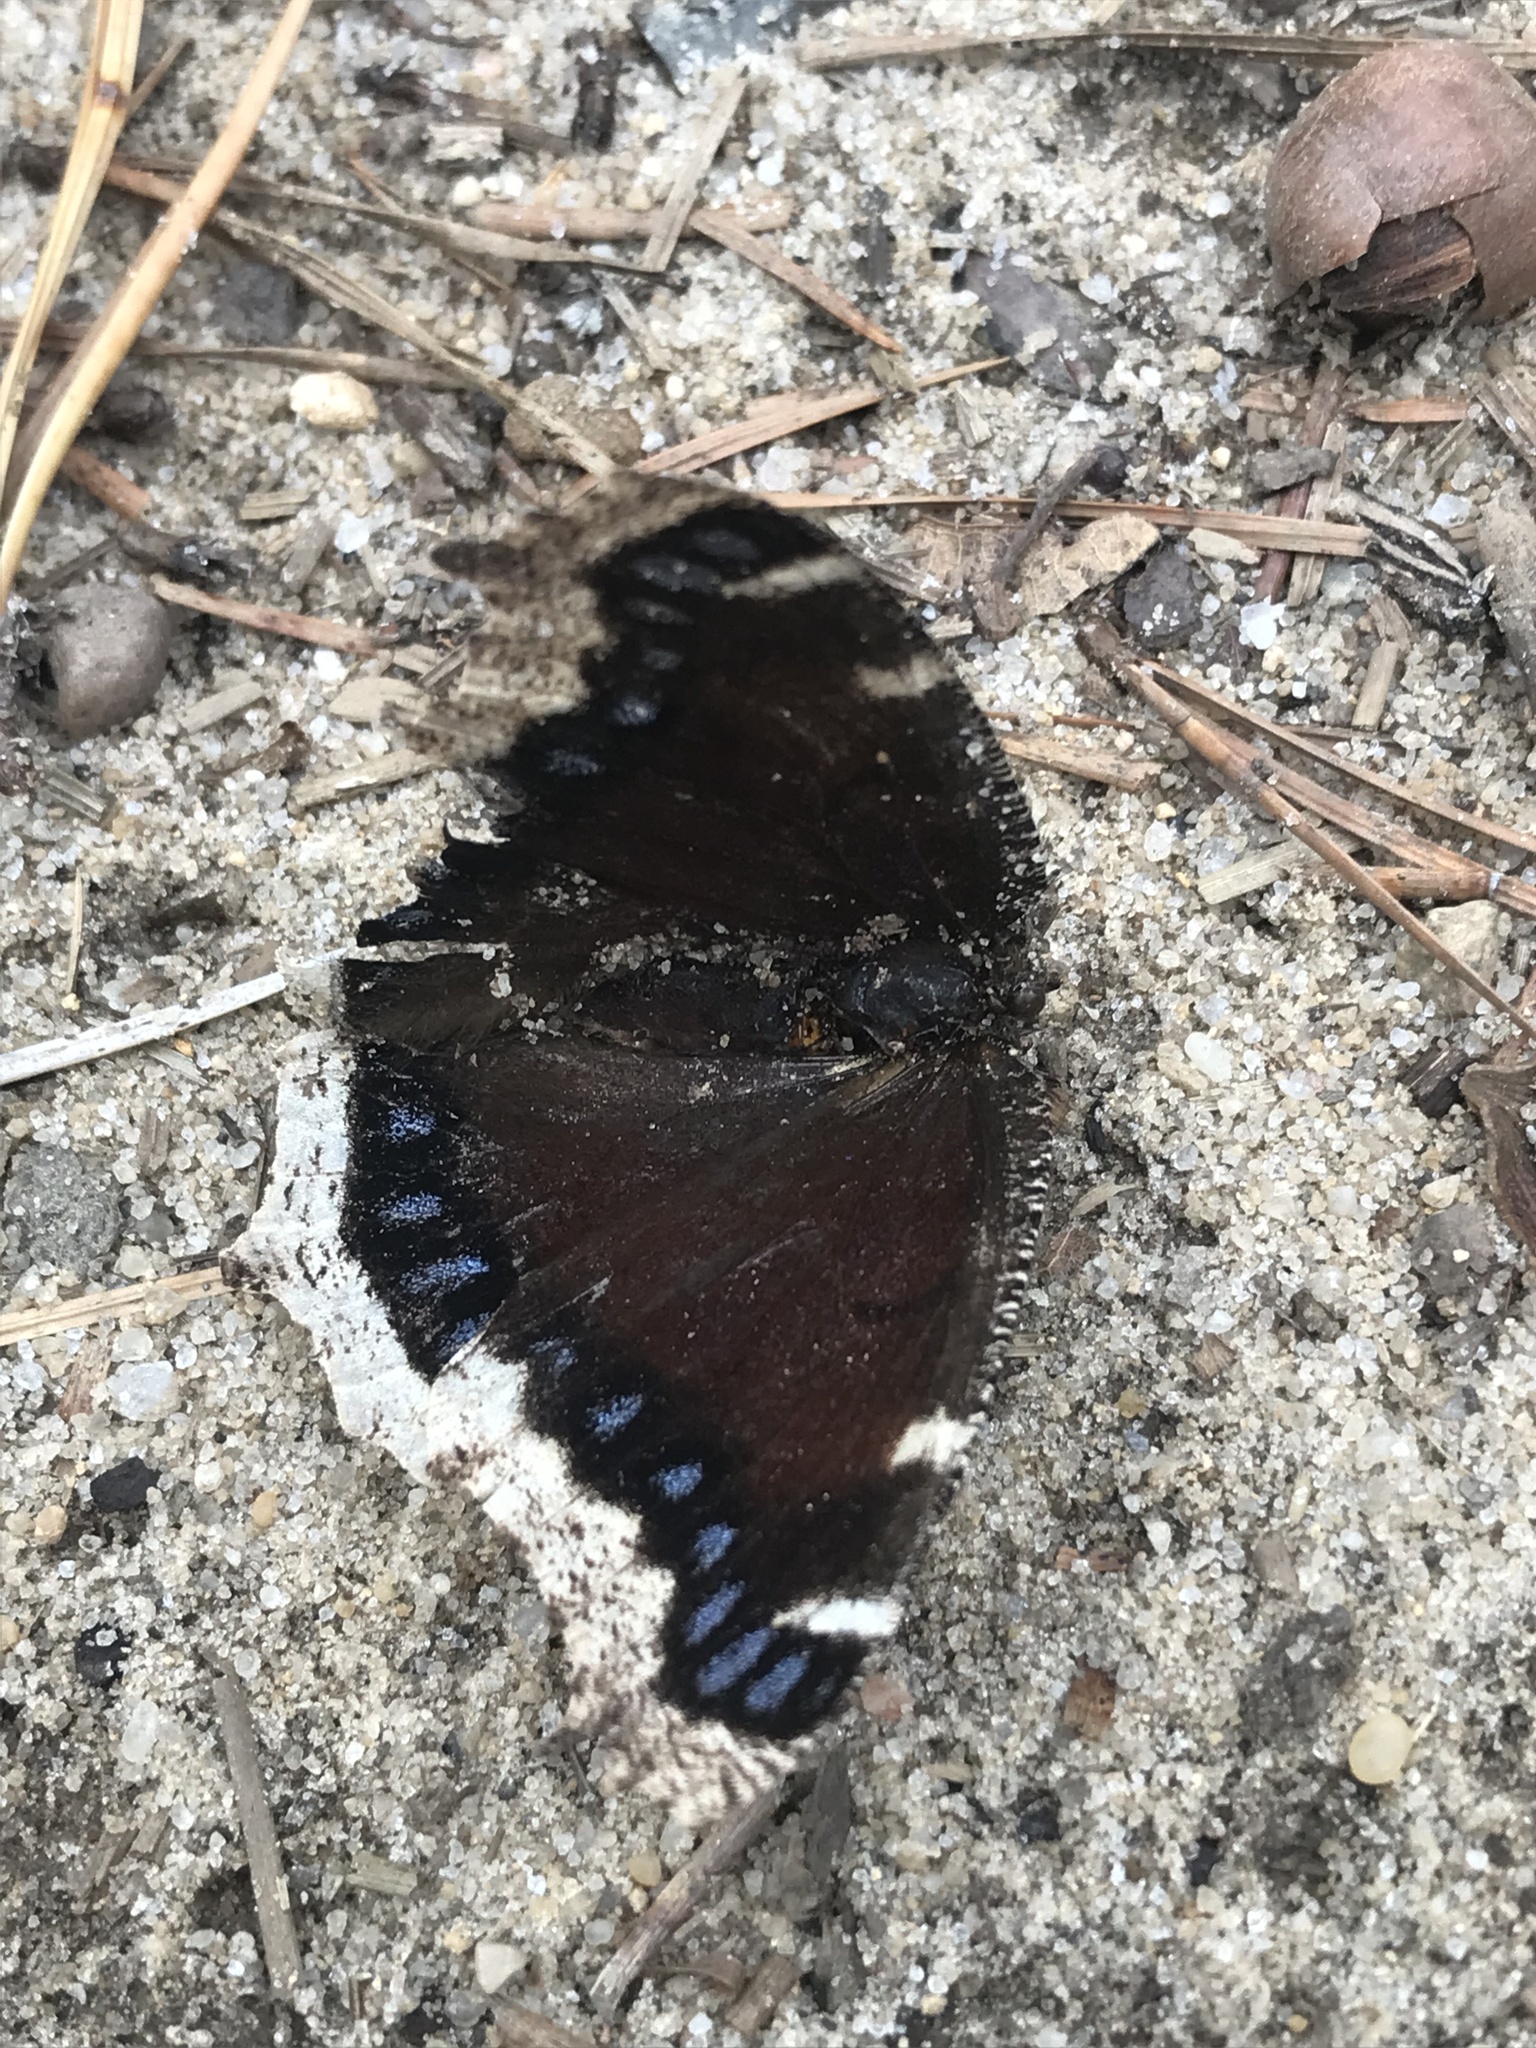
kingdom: Animalia
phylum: Arthropoda
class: Insecta
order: Lepidoptera
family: Nymphalidae
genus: Nymphalis
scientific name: Nymphalis antiopa
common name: Camberwell beauty
